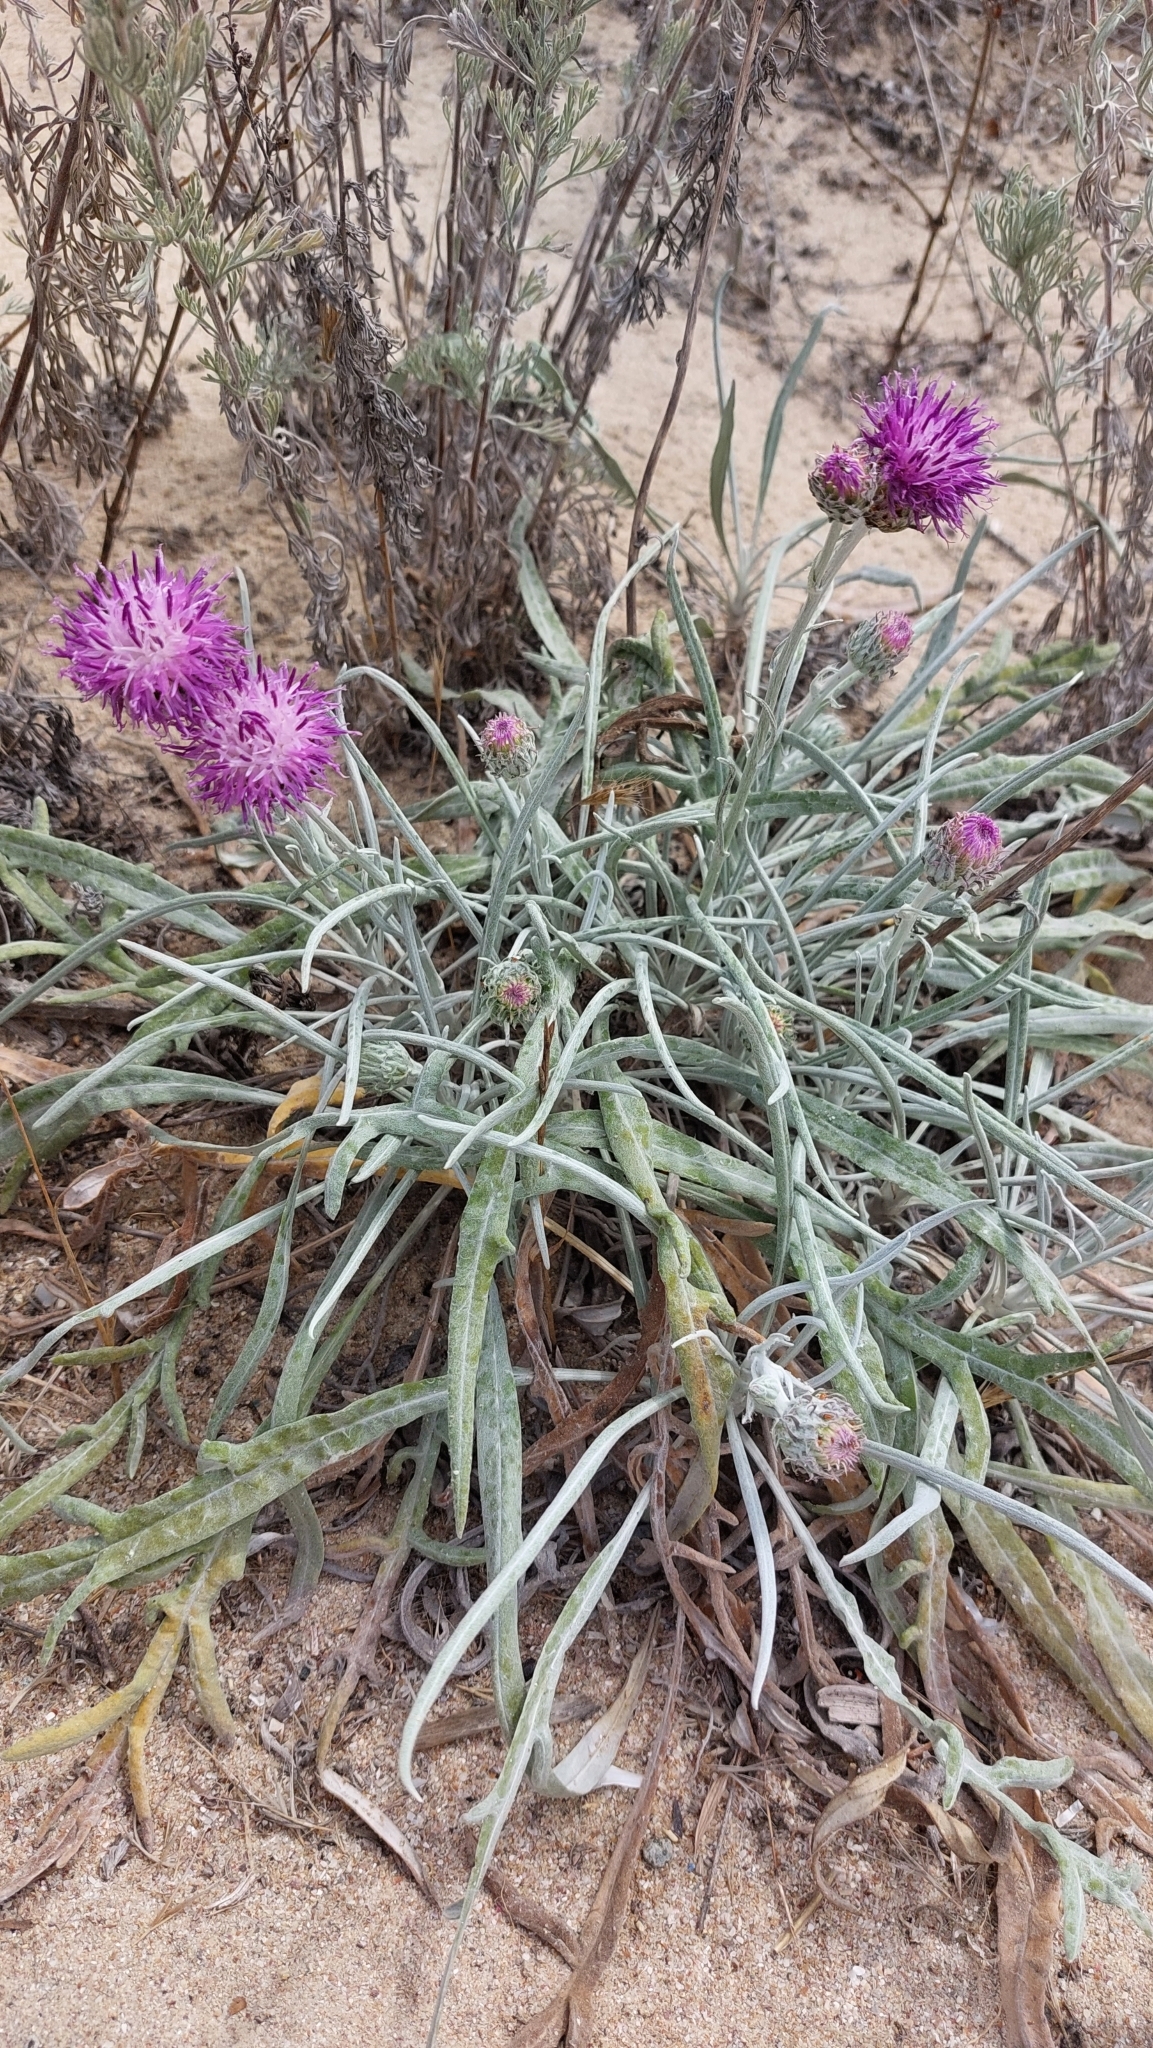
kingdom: Plantae
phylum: Tracheophyta
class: Magnoliopsida
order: Asterales
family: Asteraceae
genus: Jurinea
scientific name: Jurinea albicaulis
